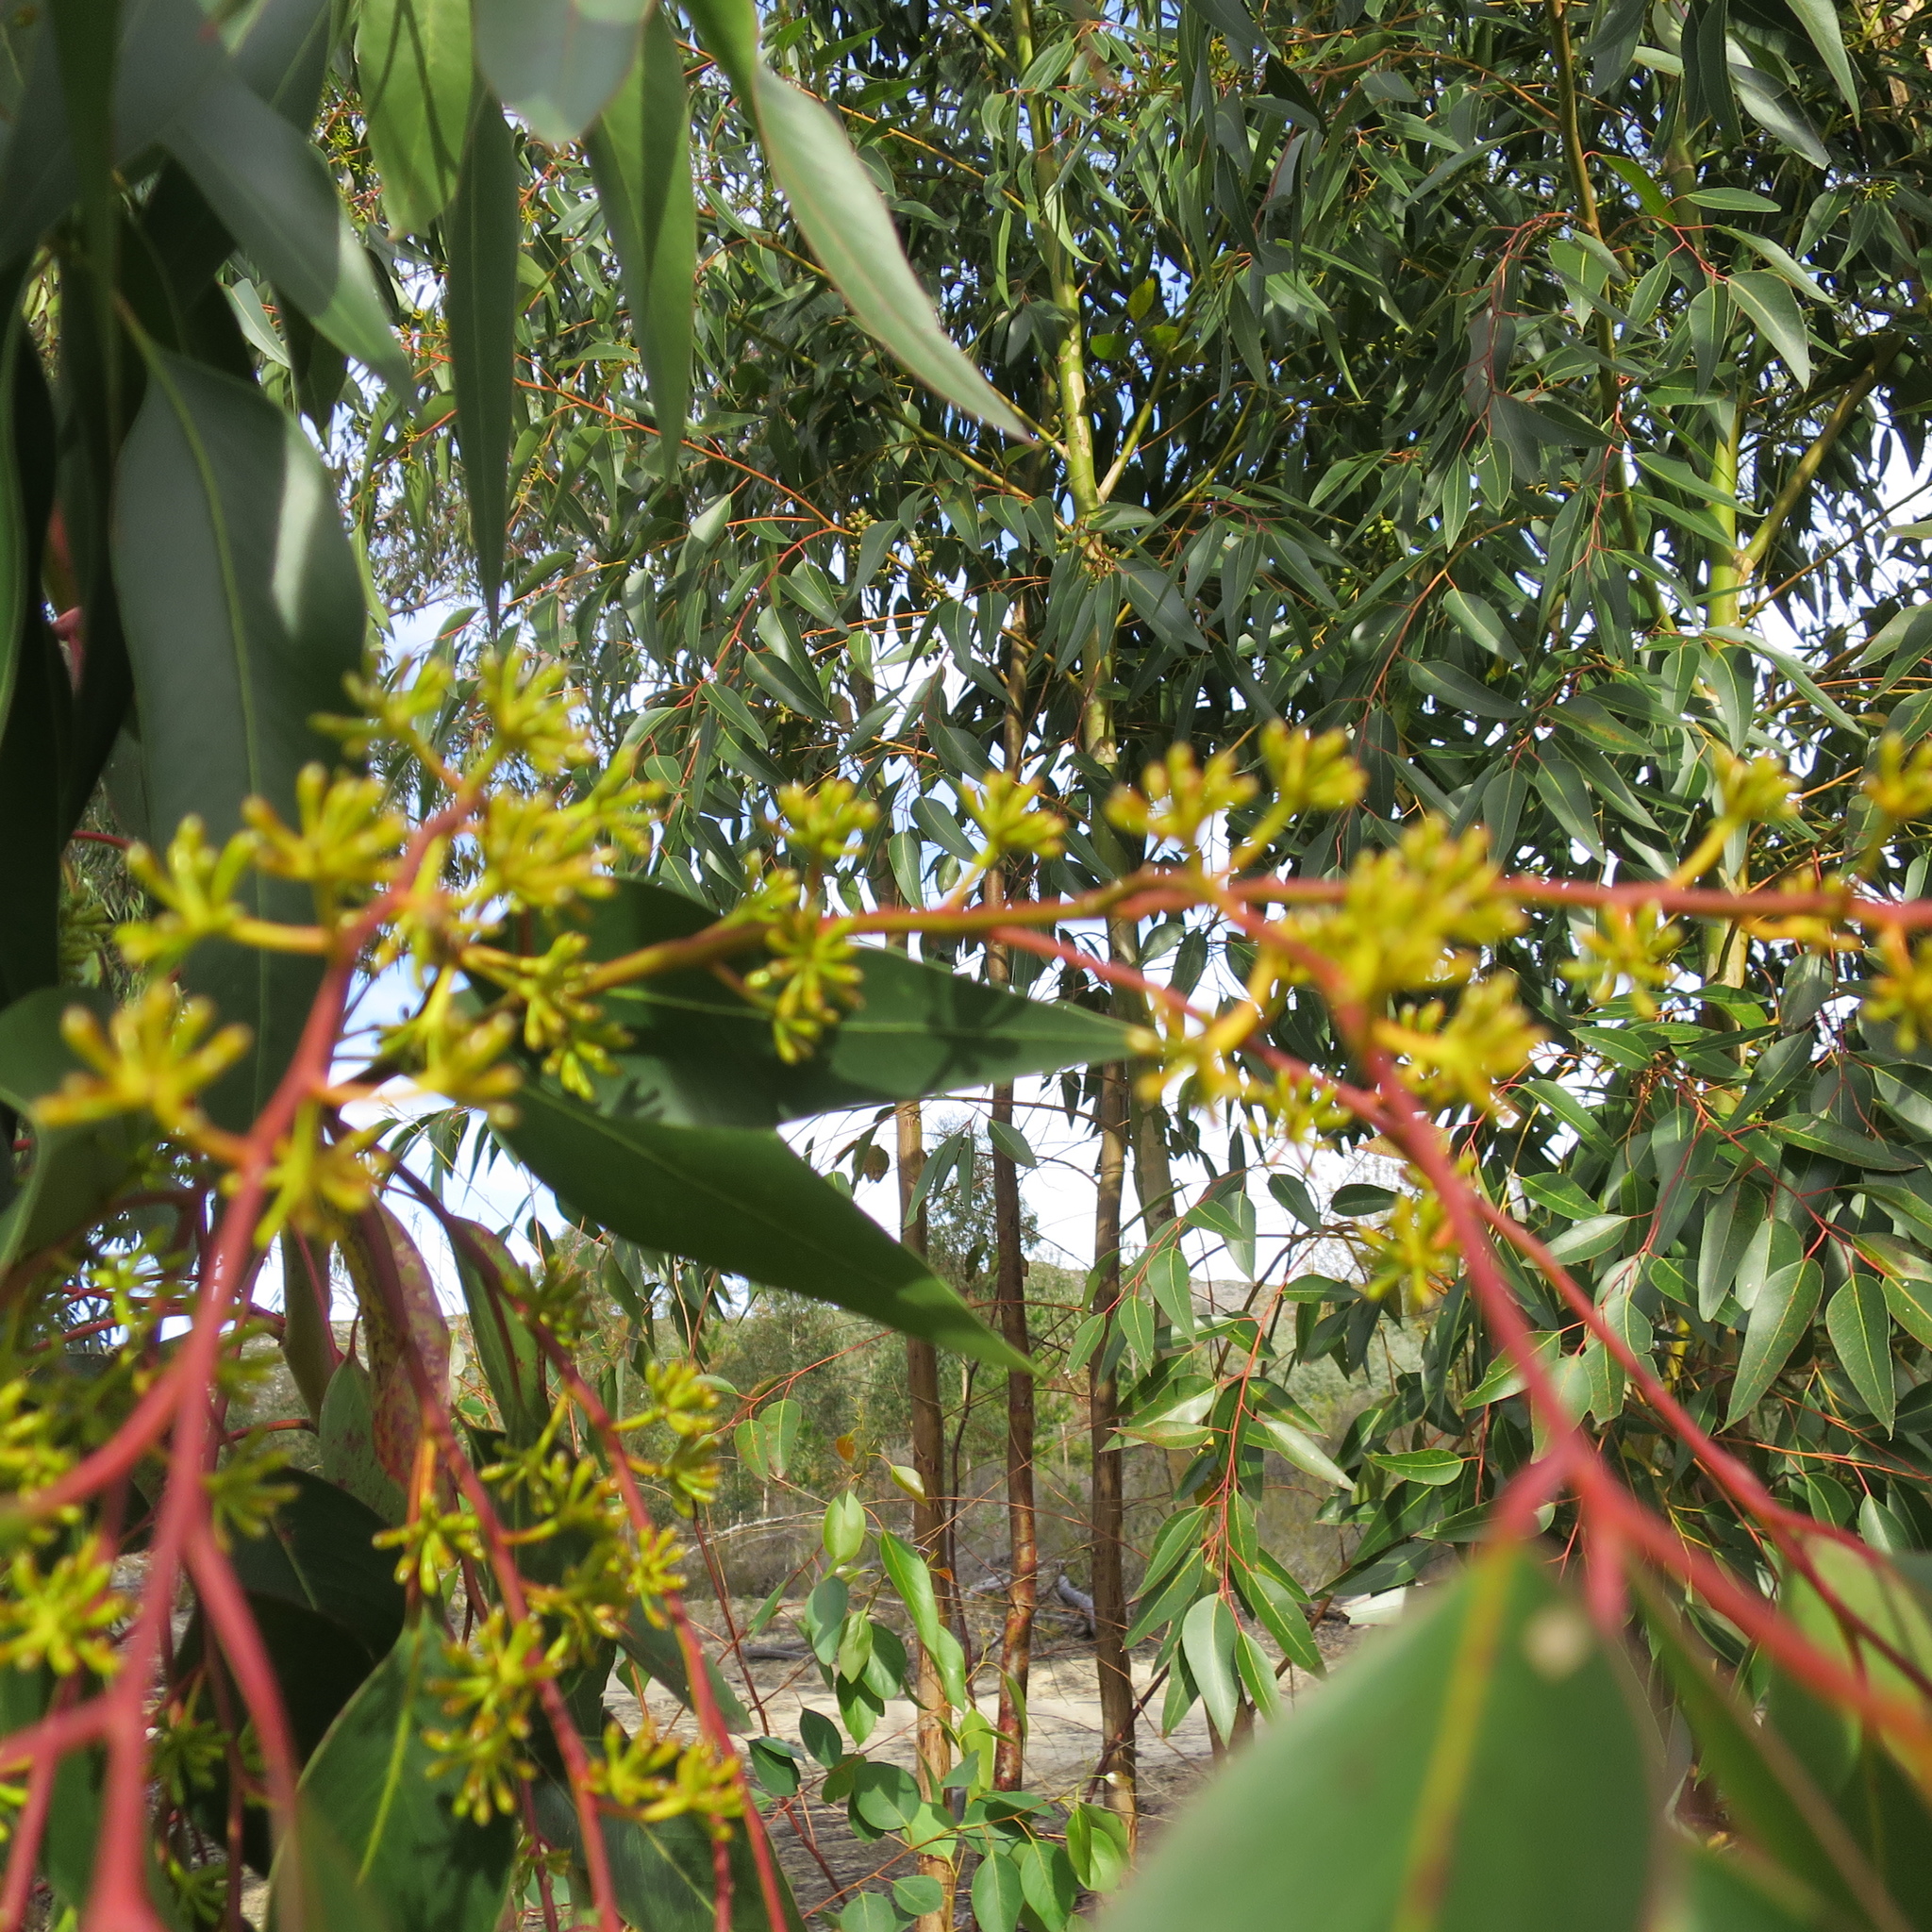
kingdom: Plantae
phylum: Tracheophyta
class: Magnoliopsida
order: Myrtales
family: Myrtaceae
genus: Eucalyptus
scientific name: Eucalyptus cladocalyx
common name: Sugargum
